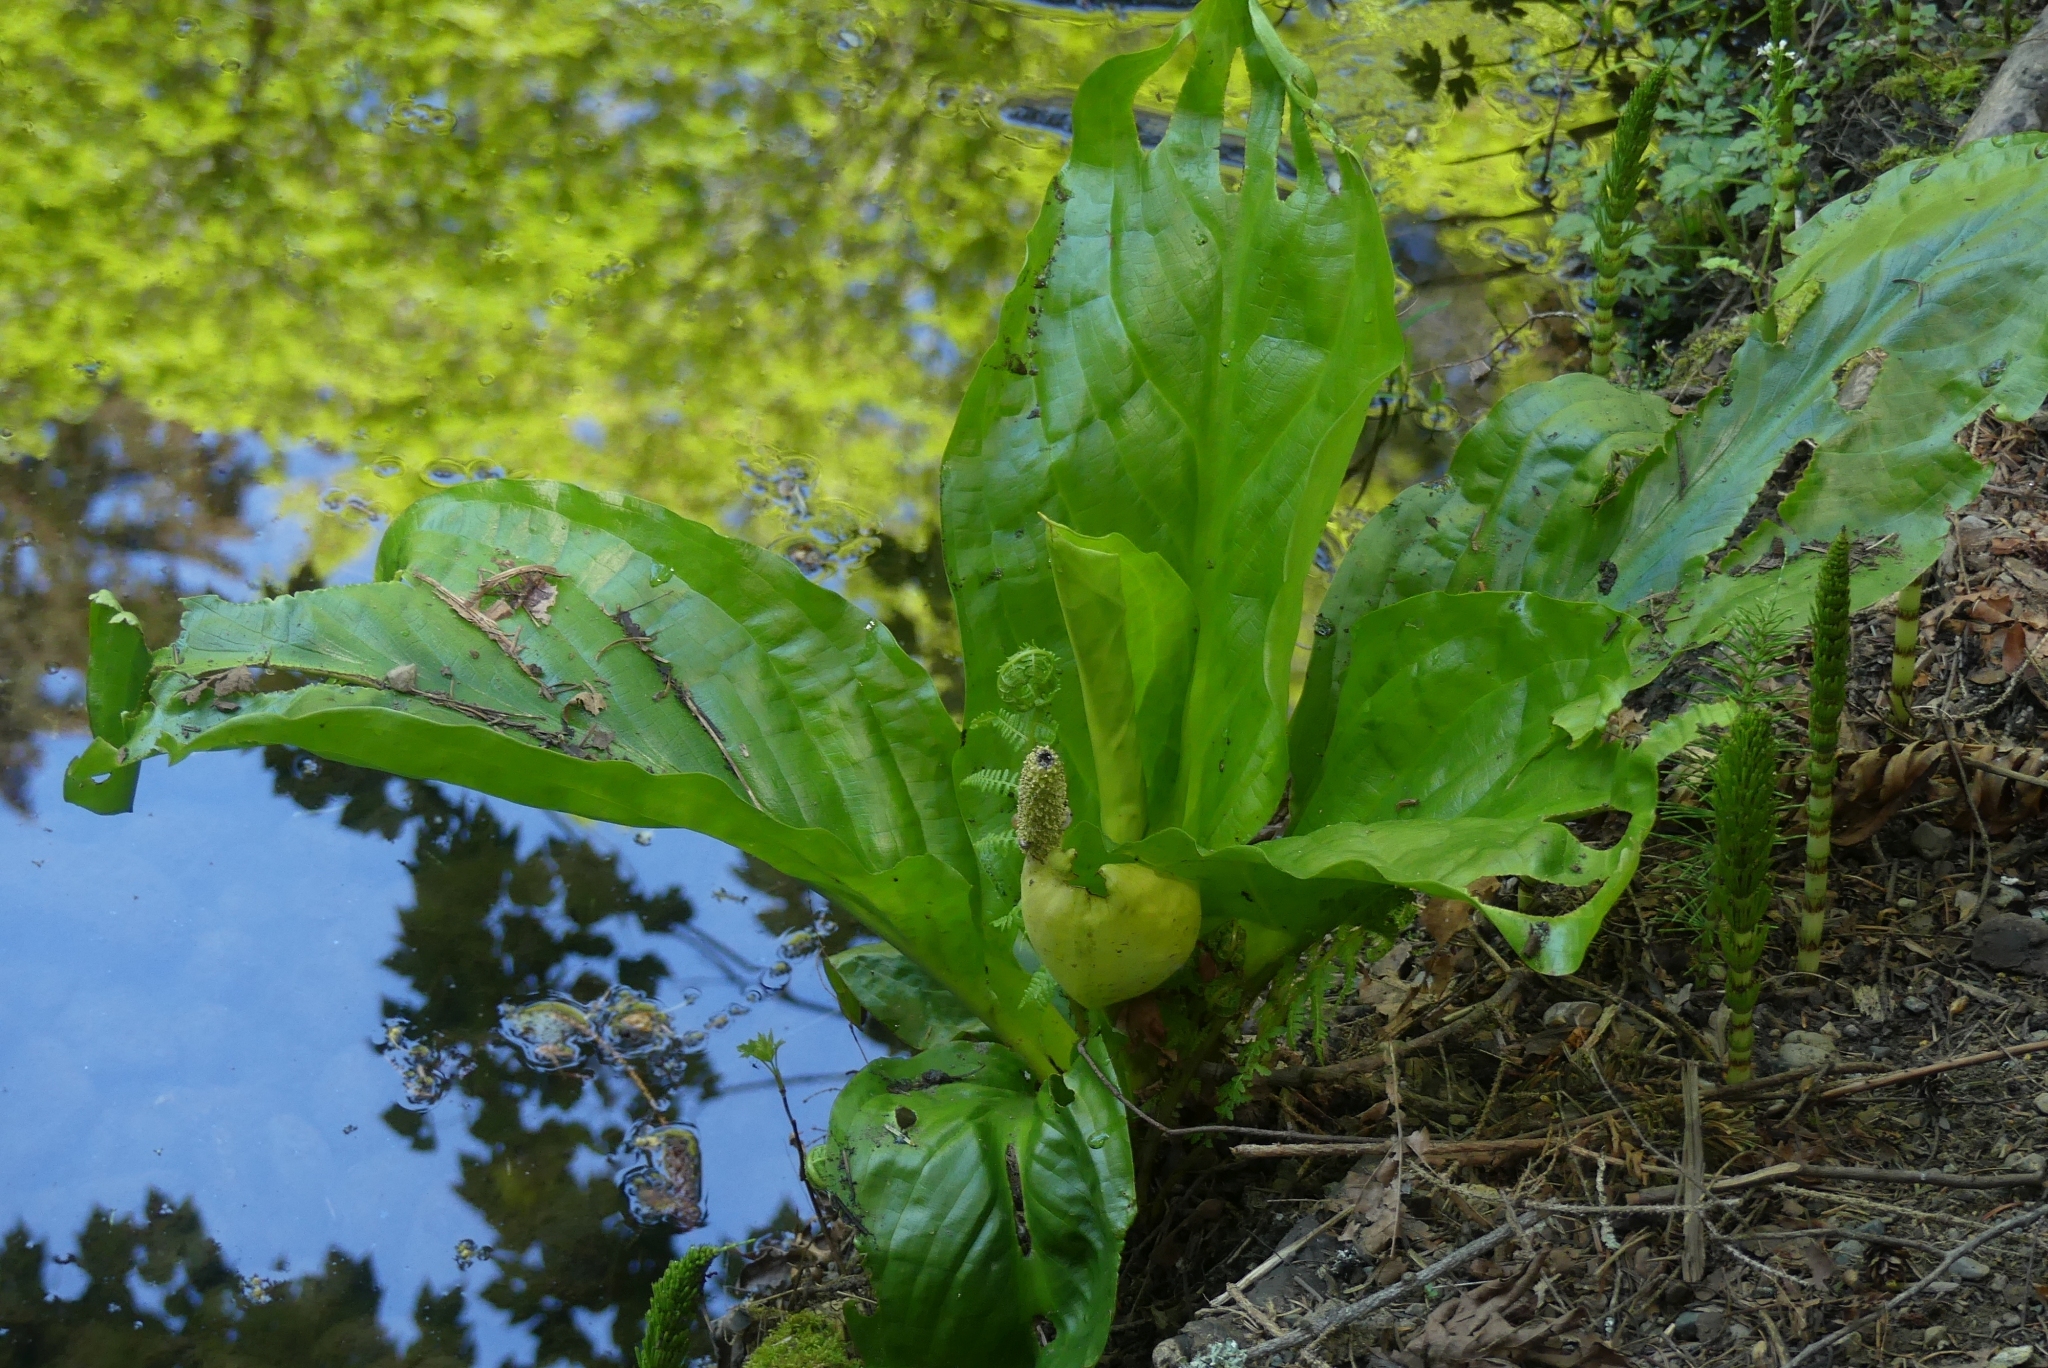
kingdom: Plantae
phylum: Tracheophyta
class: Liliopsida
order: Alismatales
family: Araceae
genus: Lysichiton
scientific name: Lysichiton americanus
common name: American skunk cabbage
